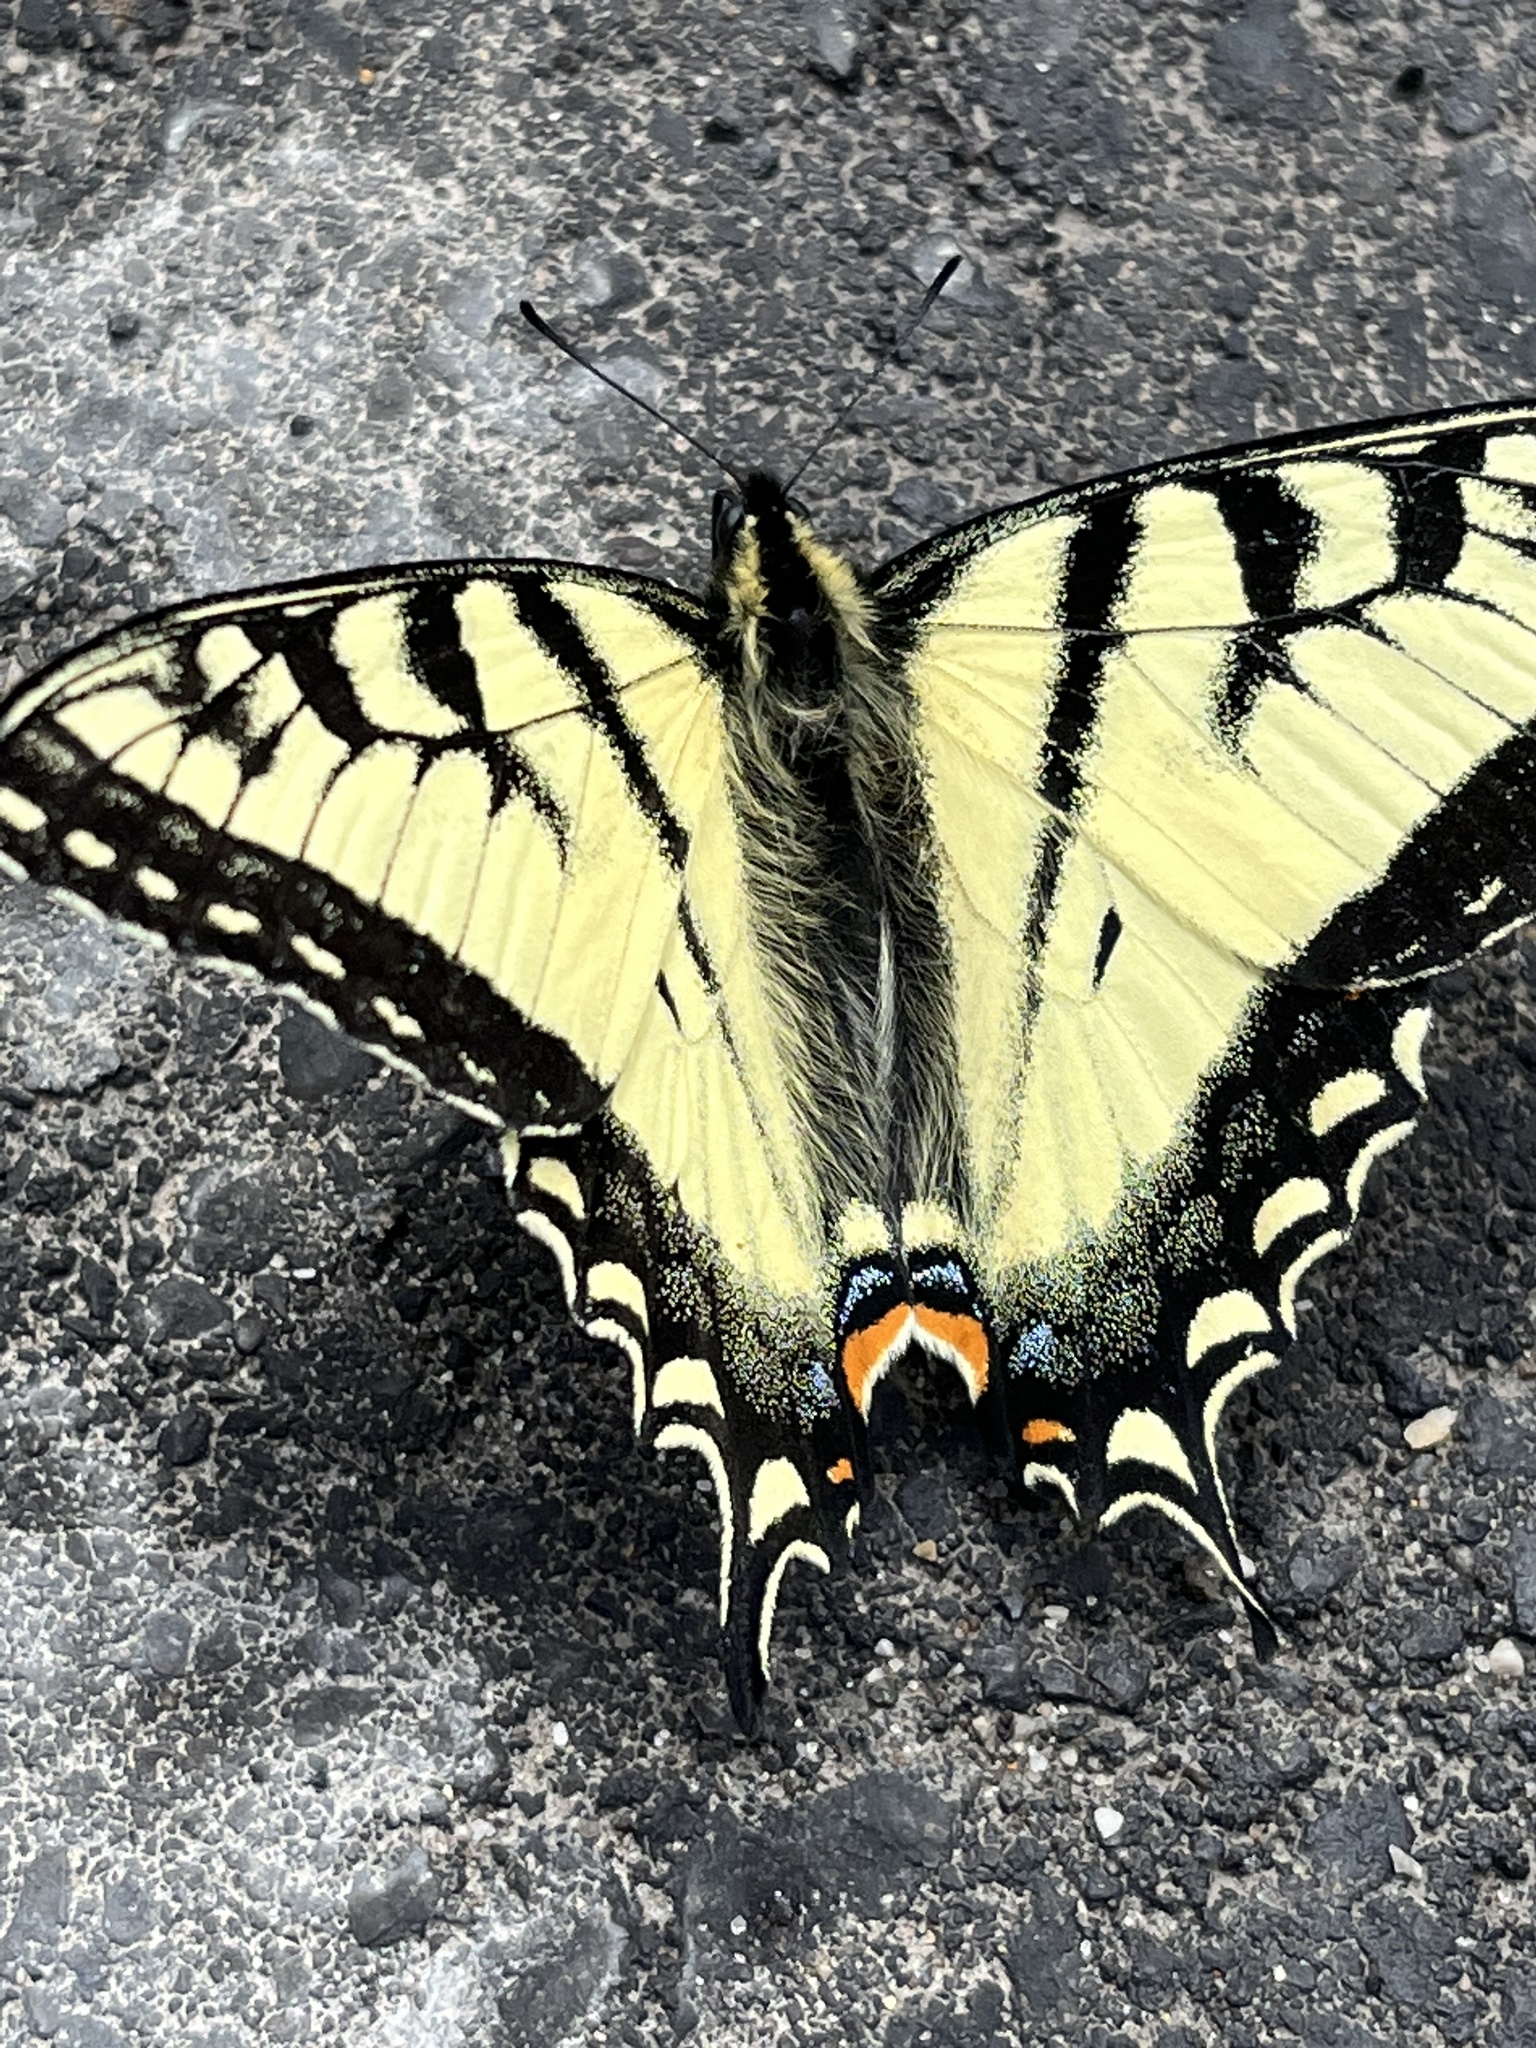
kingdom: Animalia
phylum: Arthropoda
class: Insecta
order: Lepidoptera
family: Papilionidae
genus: Papilio
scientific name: Papilio canadensis
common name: Canadian tiger swallowtail
